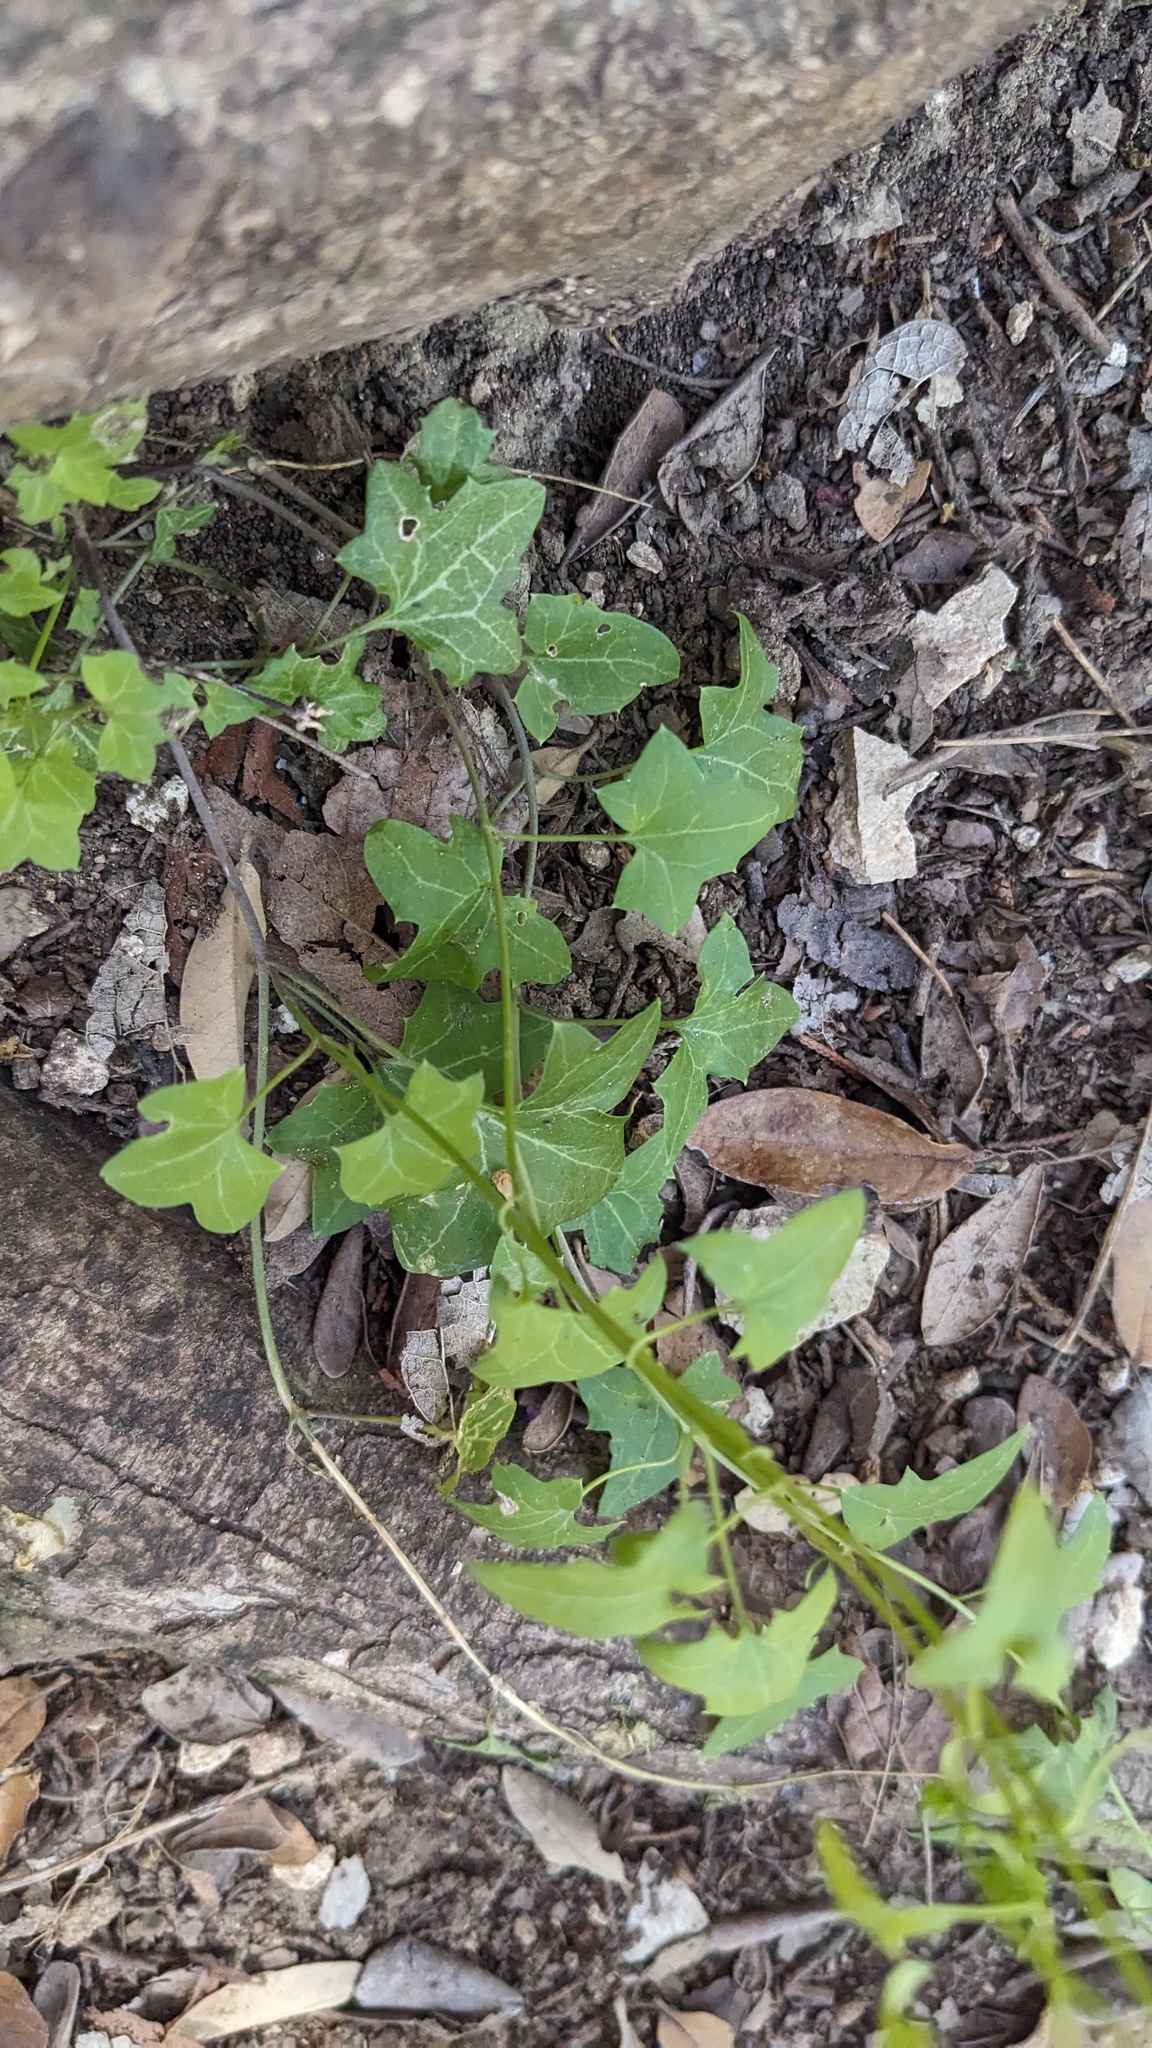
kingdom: Plantae
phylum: Tracheophyta
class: Magnoliopsida
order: Lamiales
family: Plantaginaceae
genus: Maurandella
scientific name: Maurandella antirrhiniflora
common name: Violet twining-snapdragon
